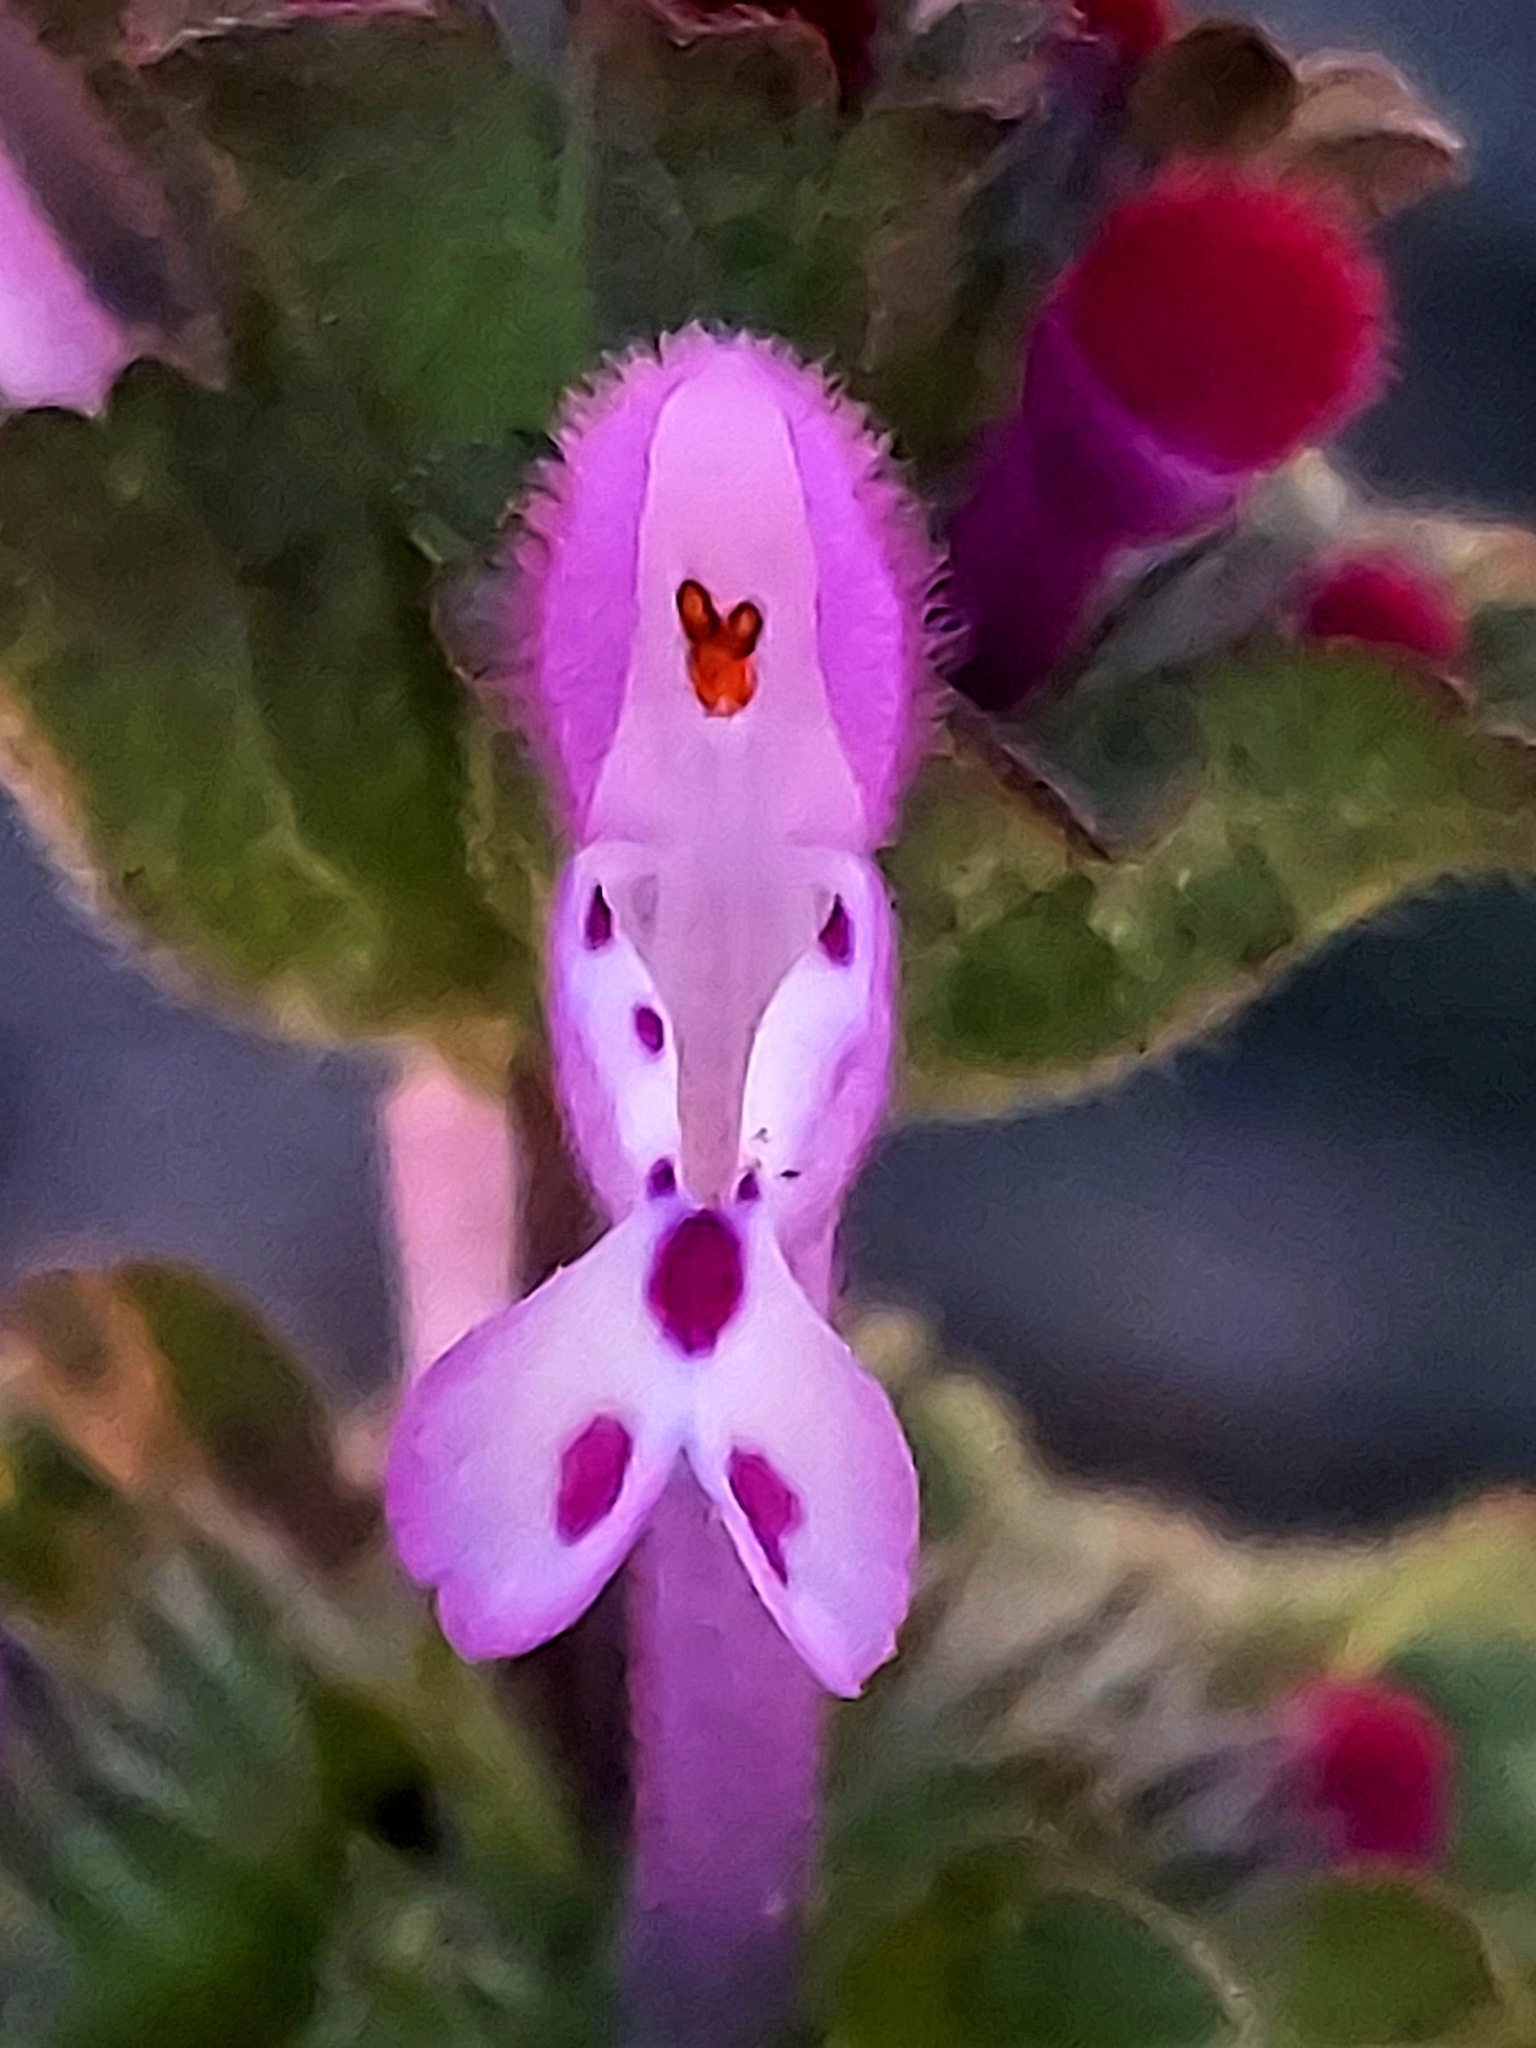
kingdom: Plantae
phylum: Tracheophyta
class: Magnoliopsida
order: Lamiales
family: Lamiaceae
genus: Lamium
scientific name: Lamium amplexicaule
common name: Henbit dead-nettle
